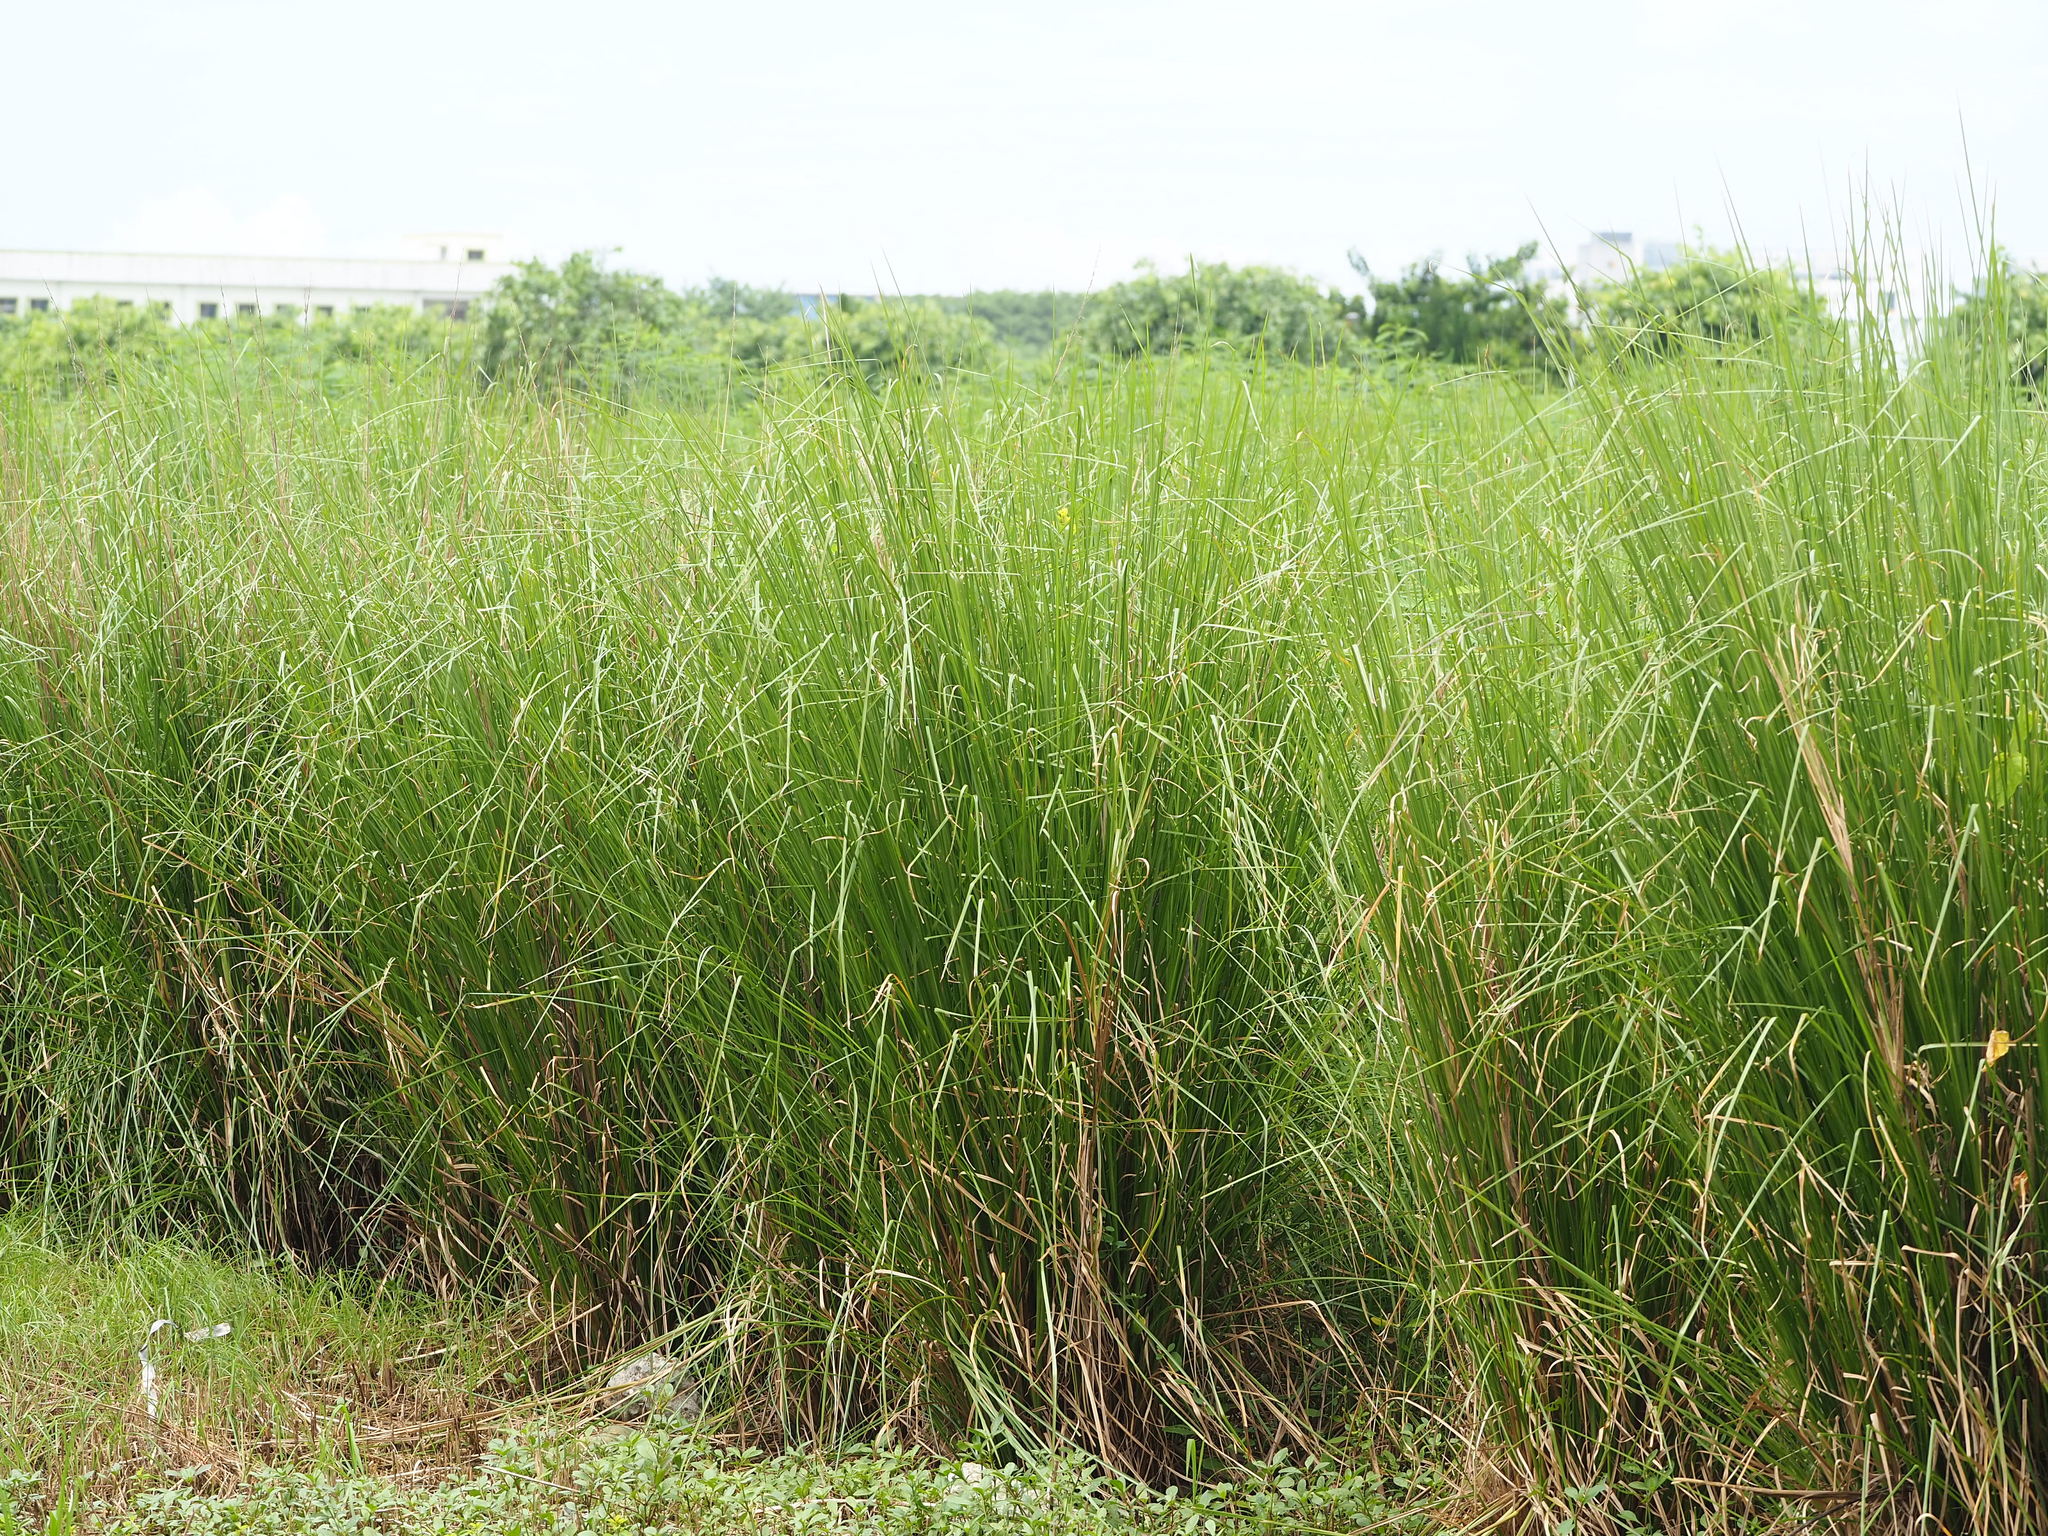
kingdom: Plantae
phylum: Tracheophyta
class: Liliopsida
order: Poales
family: Poaceae
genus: Chrysopogon
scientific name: Chrysopogon zizanioides
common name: False beardgrass
